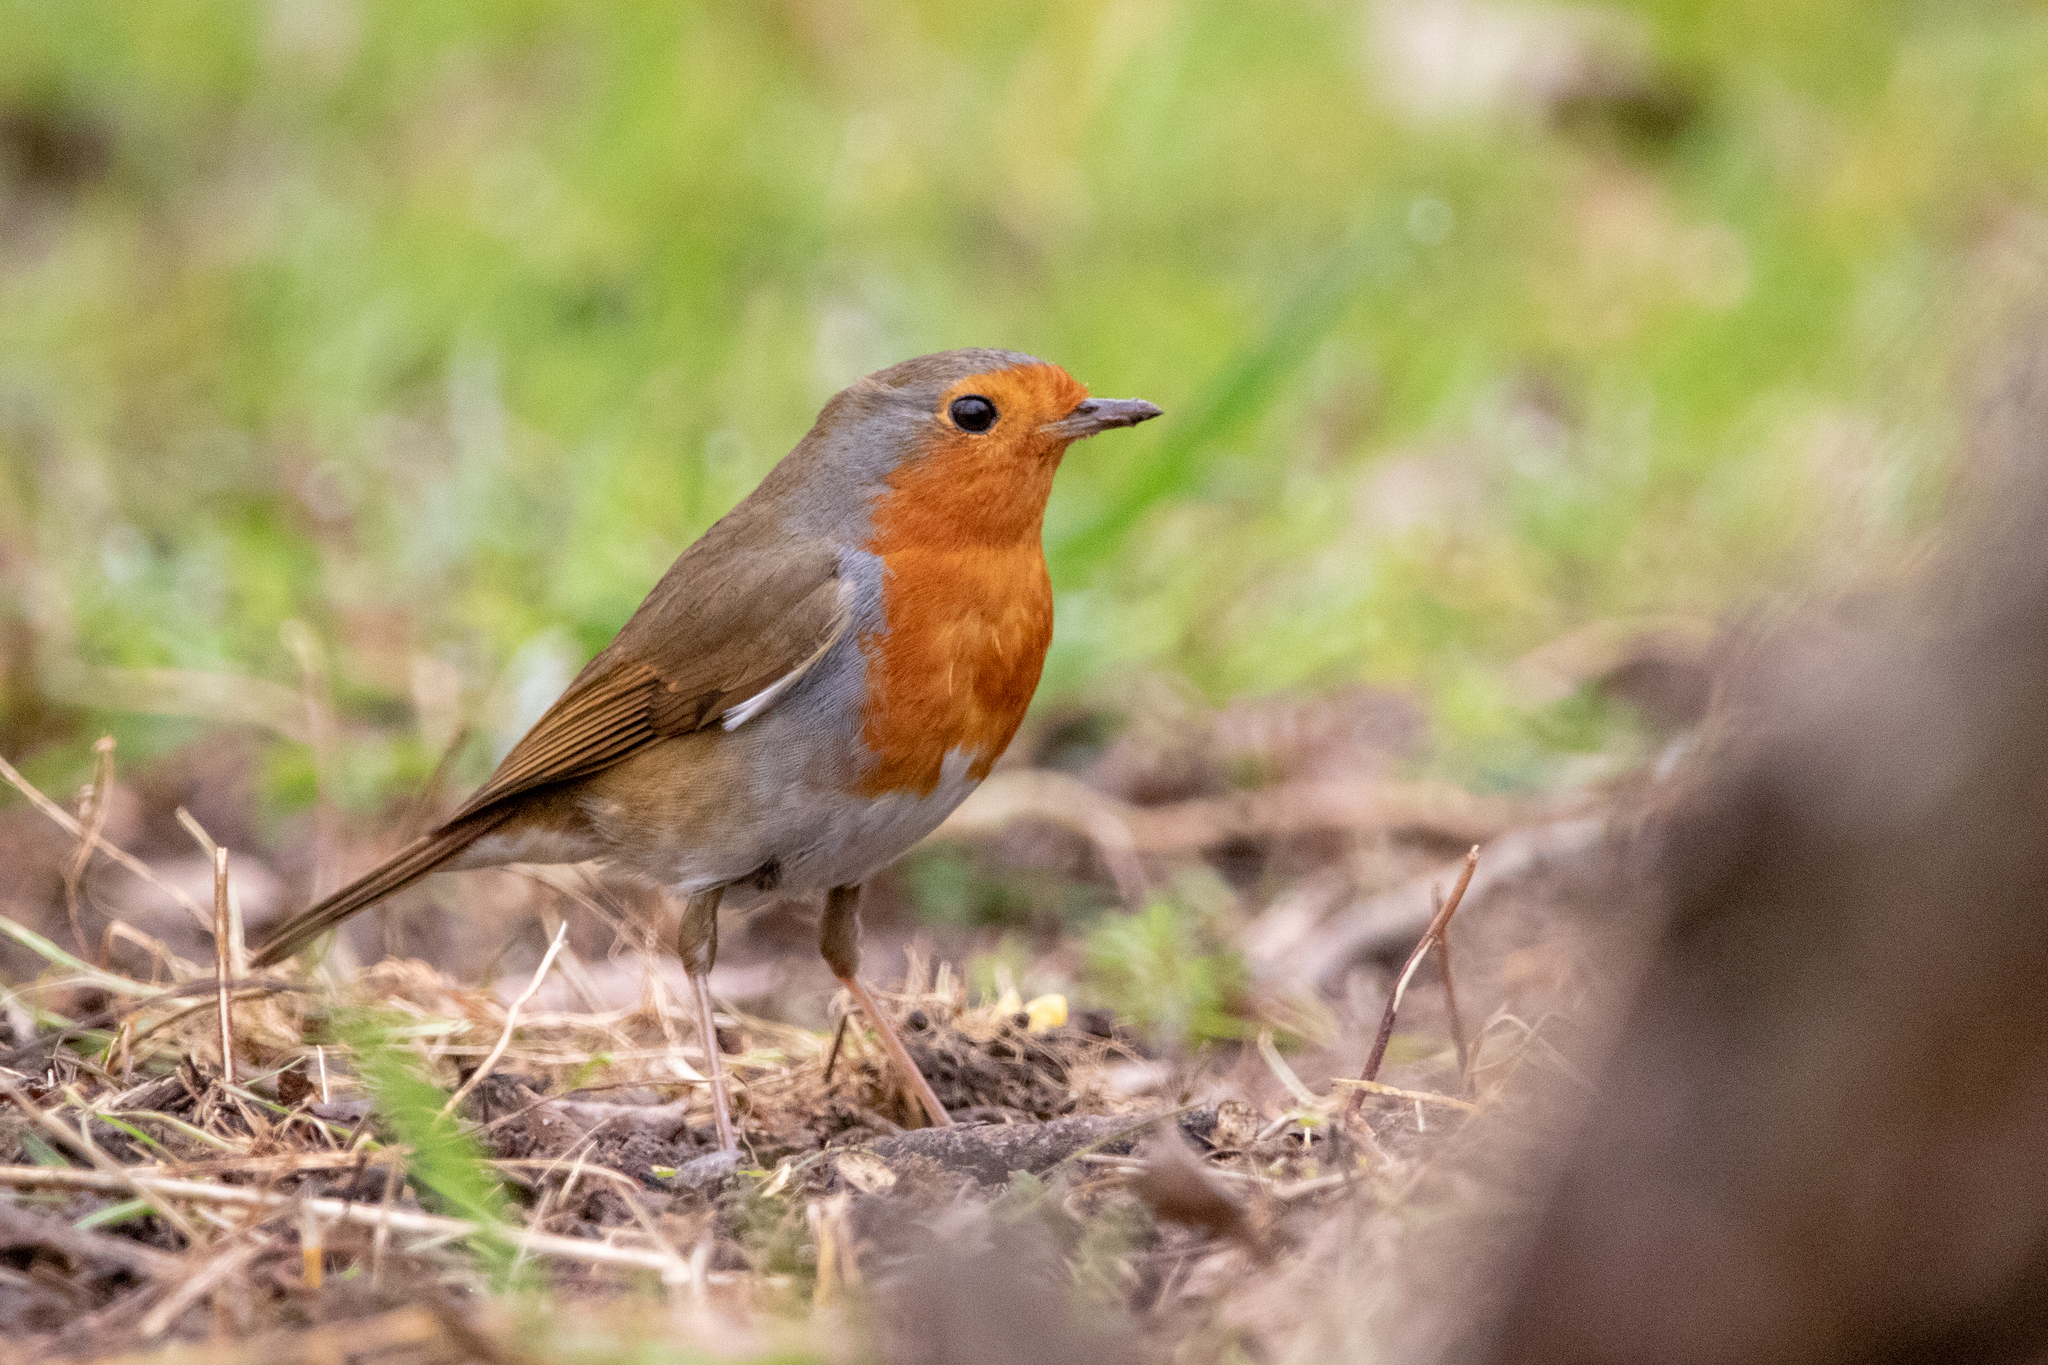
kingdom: Animalia
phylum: Chordata
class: Aves
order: Passeriformes
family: Muscicapidae
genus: Erithacus
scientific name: Erithacus rubecula
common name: European robin
